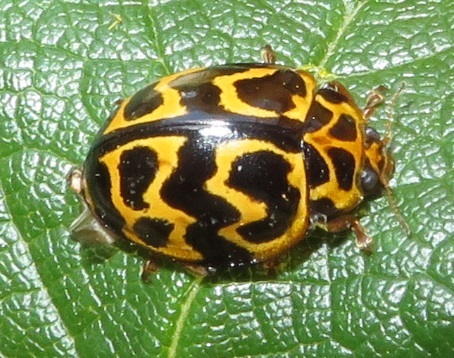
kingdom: Animalia
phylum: Arthropoda
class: Insecta
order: Coleoptera
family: Coccinellidae
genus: Cleobora
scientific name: Cleobora
